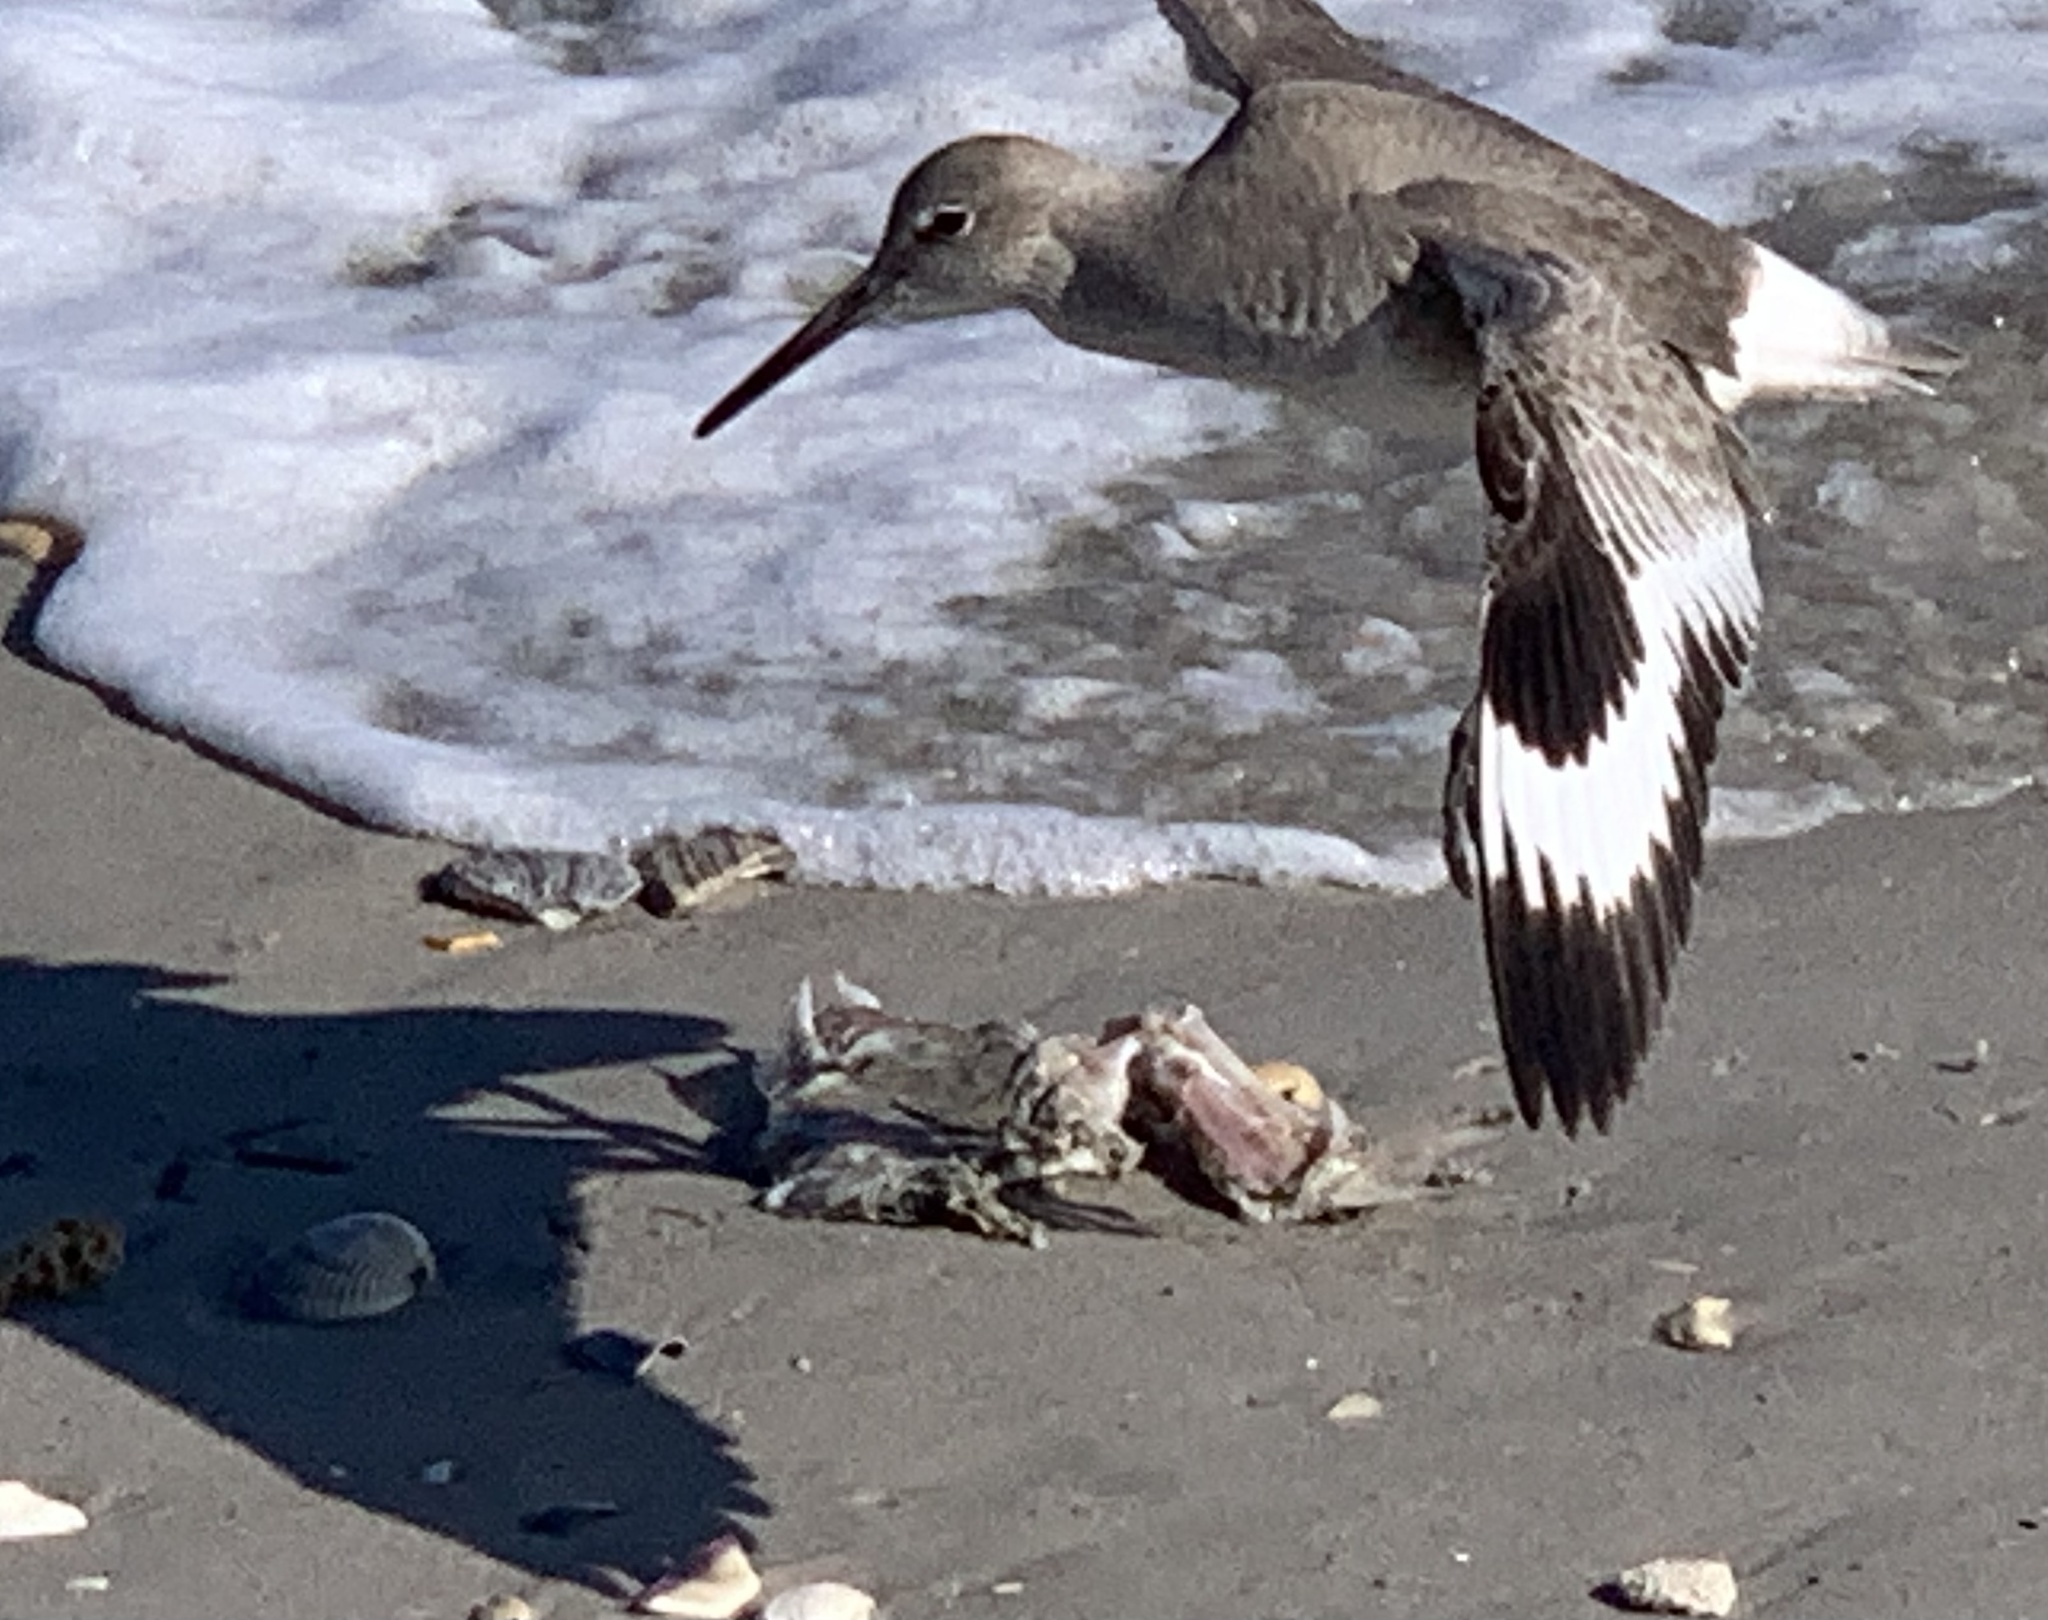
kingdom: Animalia
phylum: Chordata
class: Aves
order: Charadriiformes
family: Scolopacidae
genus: Tringa
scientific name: Tringa semipalmata
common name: Willet
